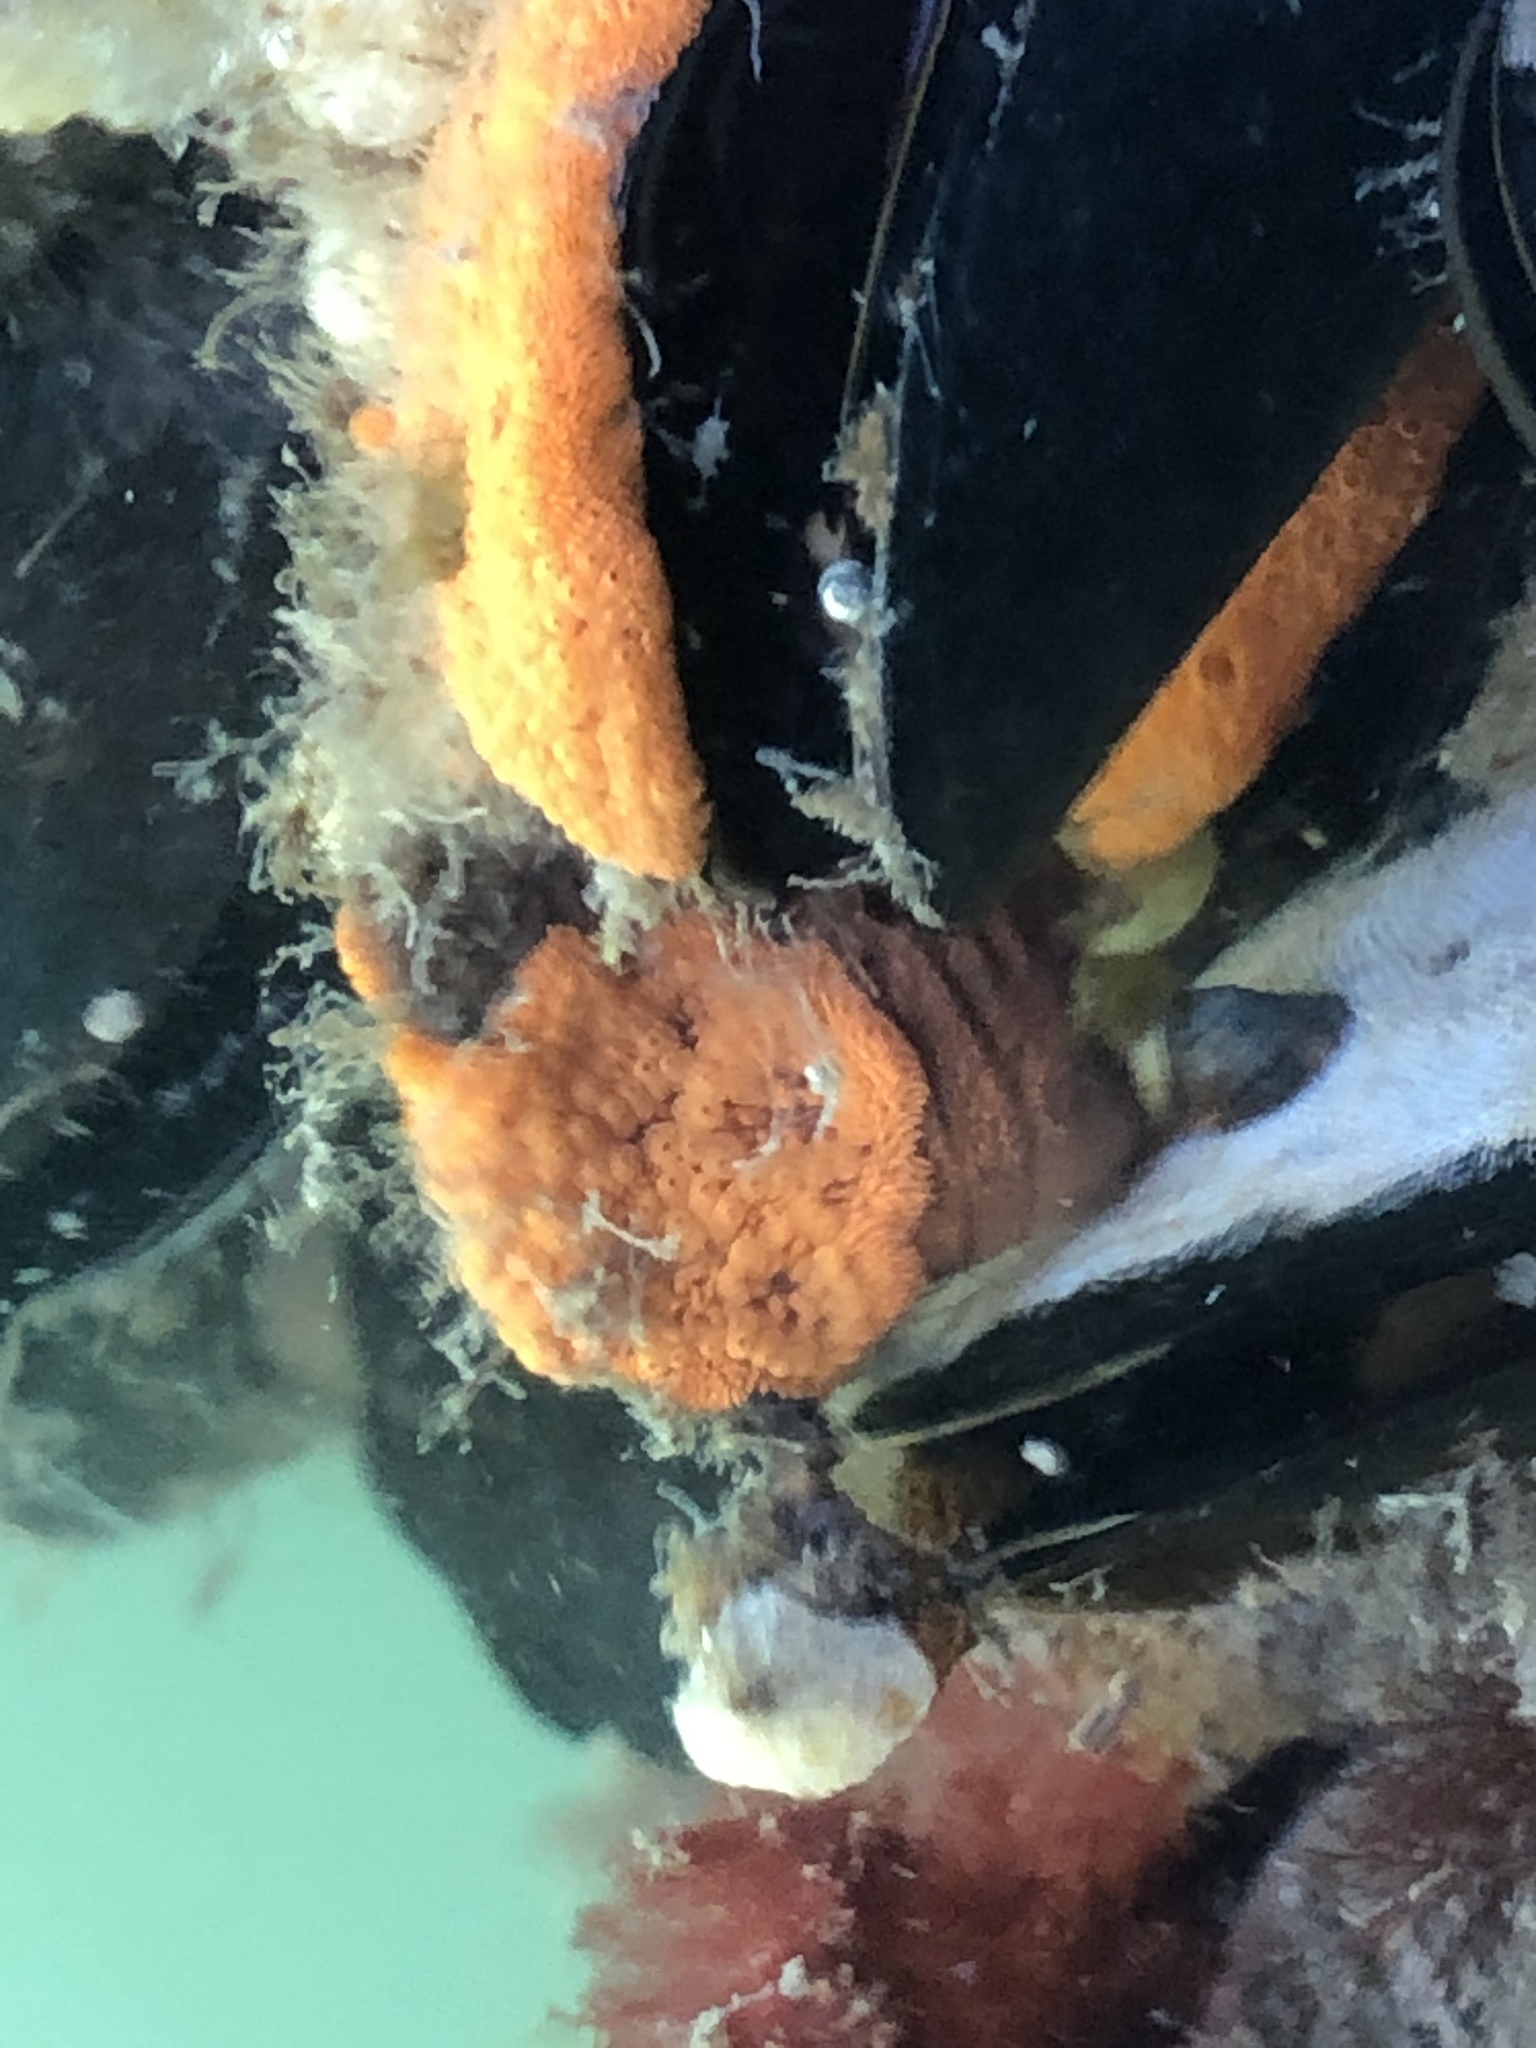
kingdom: Animalia
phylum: Chordata
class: Ascidiacea
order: Stolidobranchia
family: Styelidae
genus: Botrylloides
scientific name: Botrylloides violaceus
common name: Colonial sea squirt
